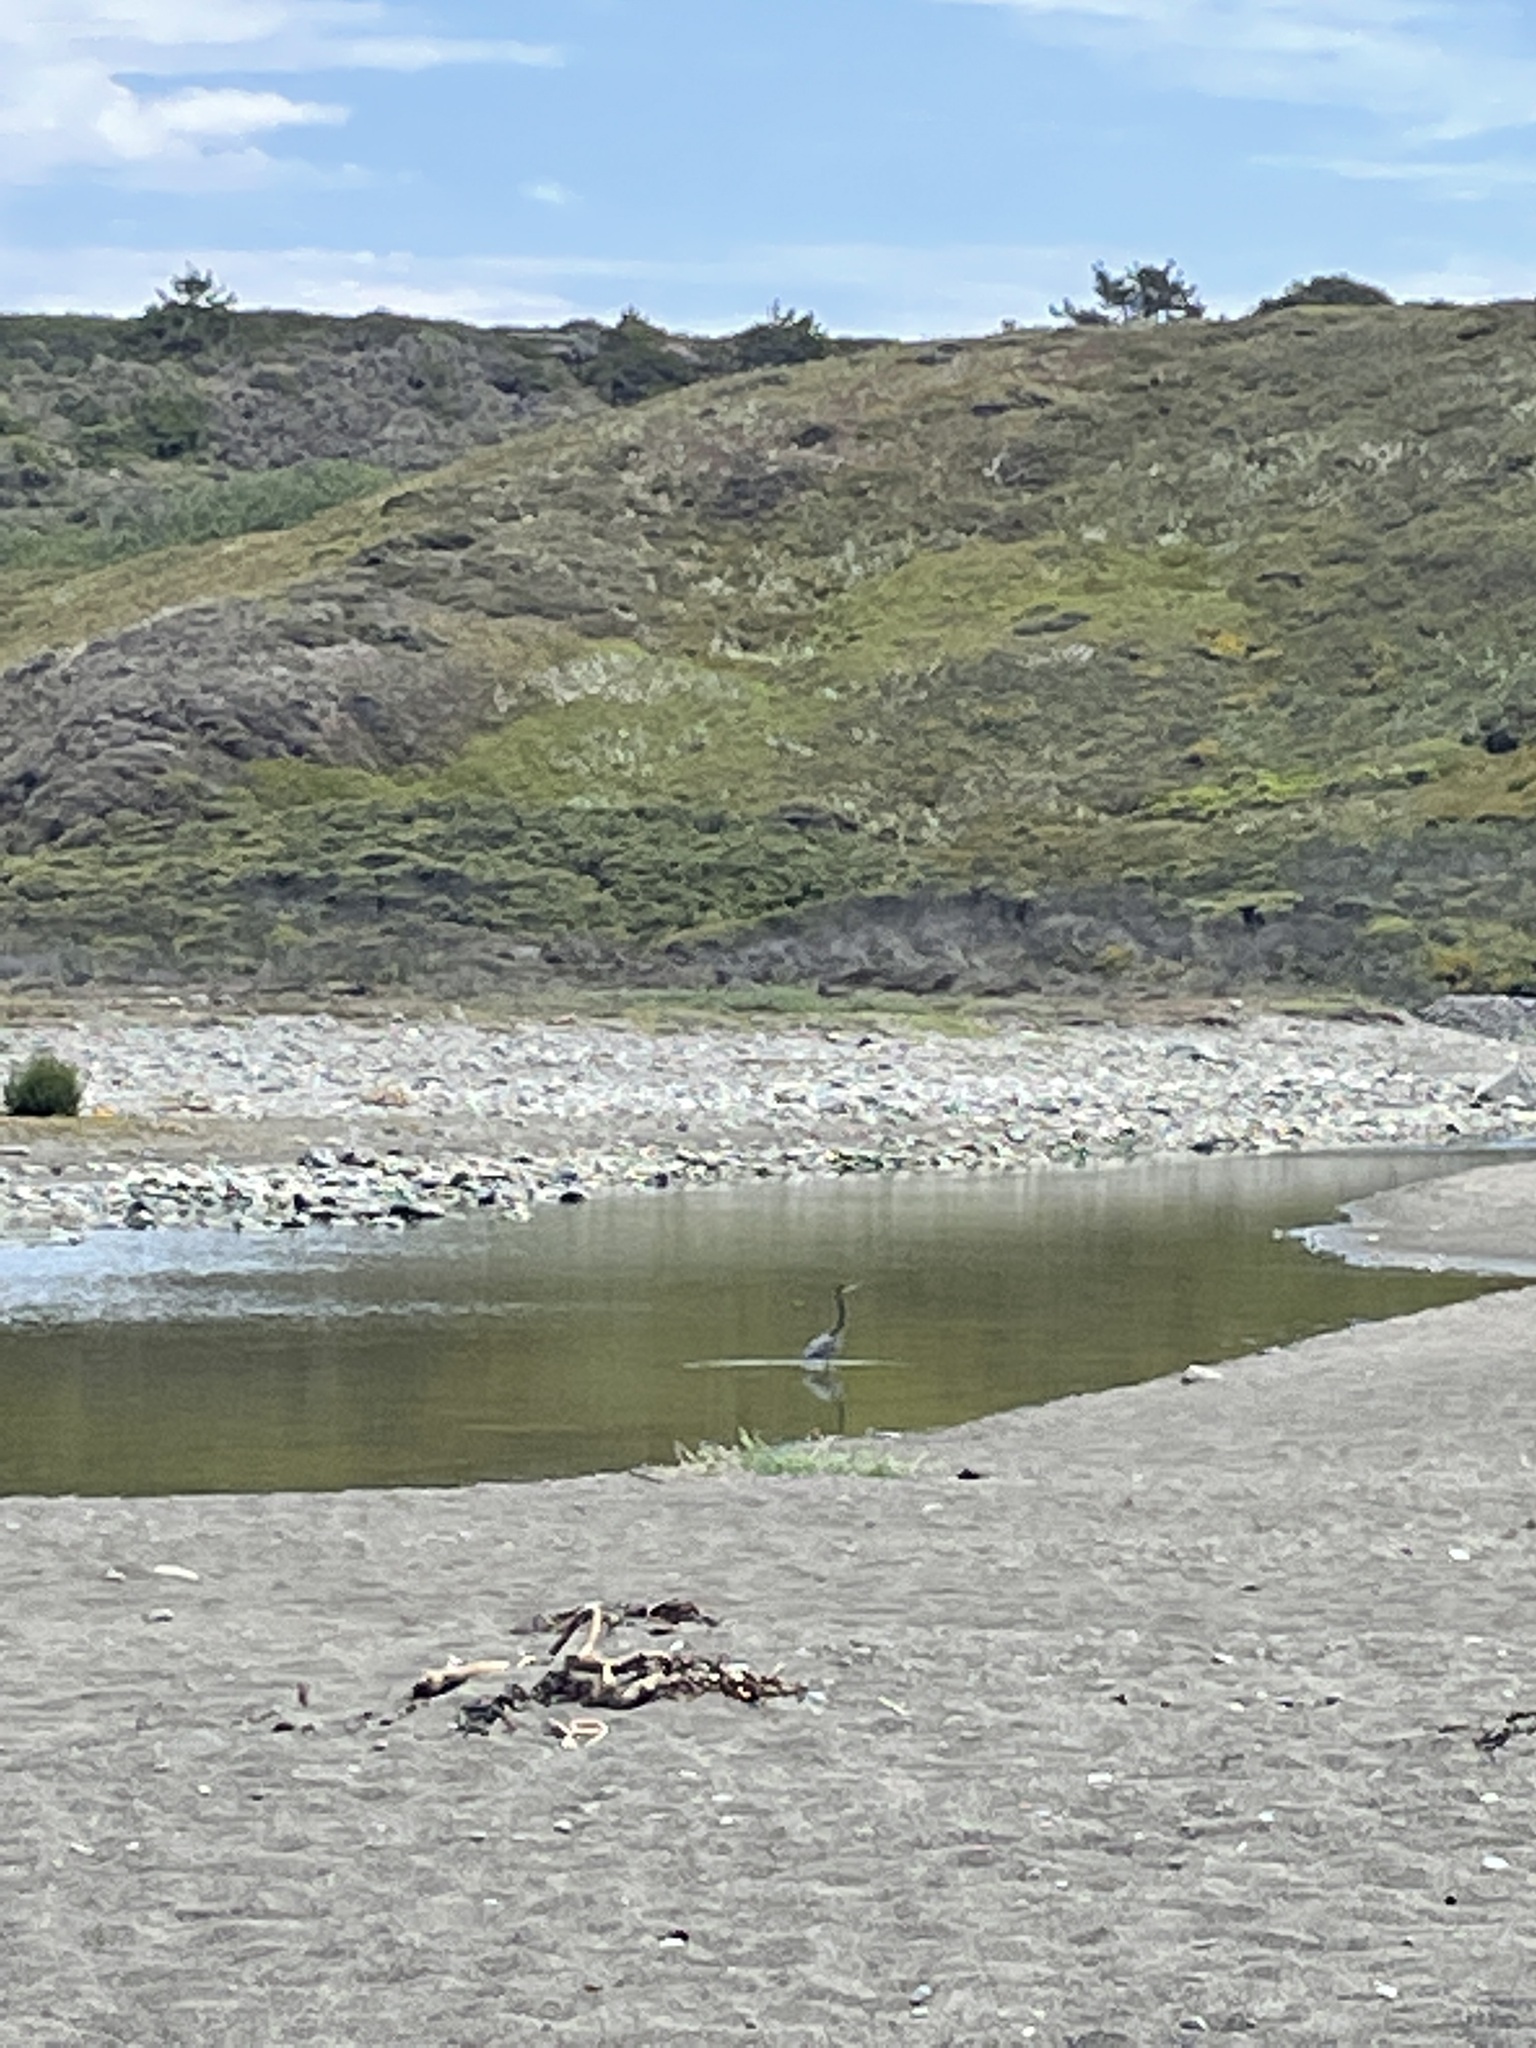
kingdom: Animalia
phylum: Chordata
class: Aves
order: Pelecaniformes
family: Ardeidae
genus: Ardea
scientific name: Ardea herodias
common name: Great blue heron
